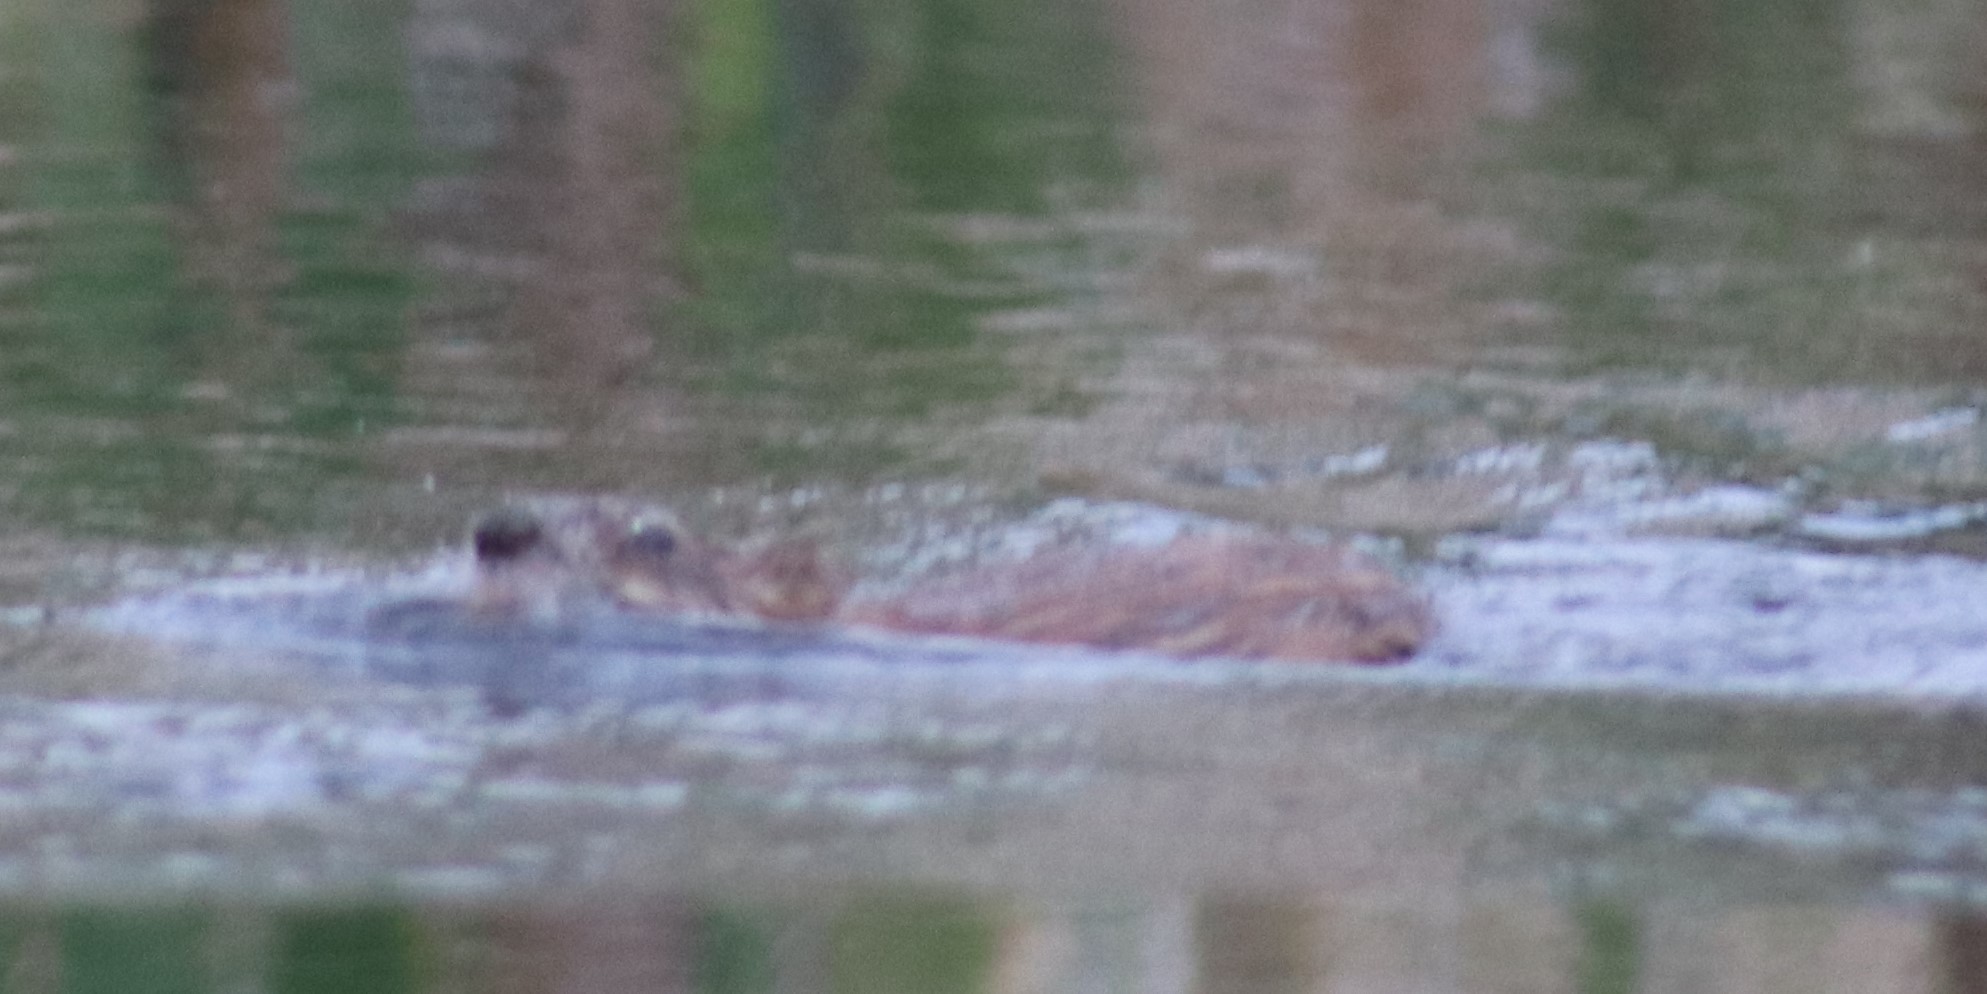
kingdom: Animalia
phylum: Chordata
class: Mammalia
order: Rodentia
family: Cricetidae
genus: Ondatra
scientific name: Ondatra zibethicus
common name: Muskrat
